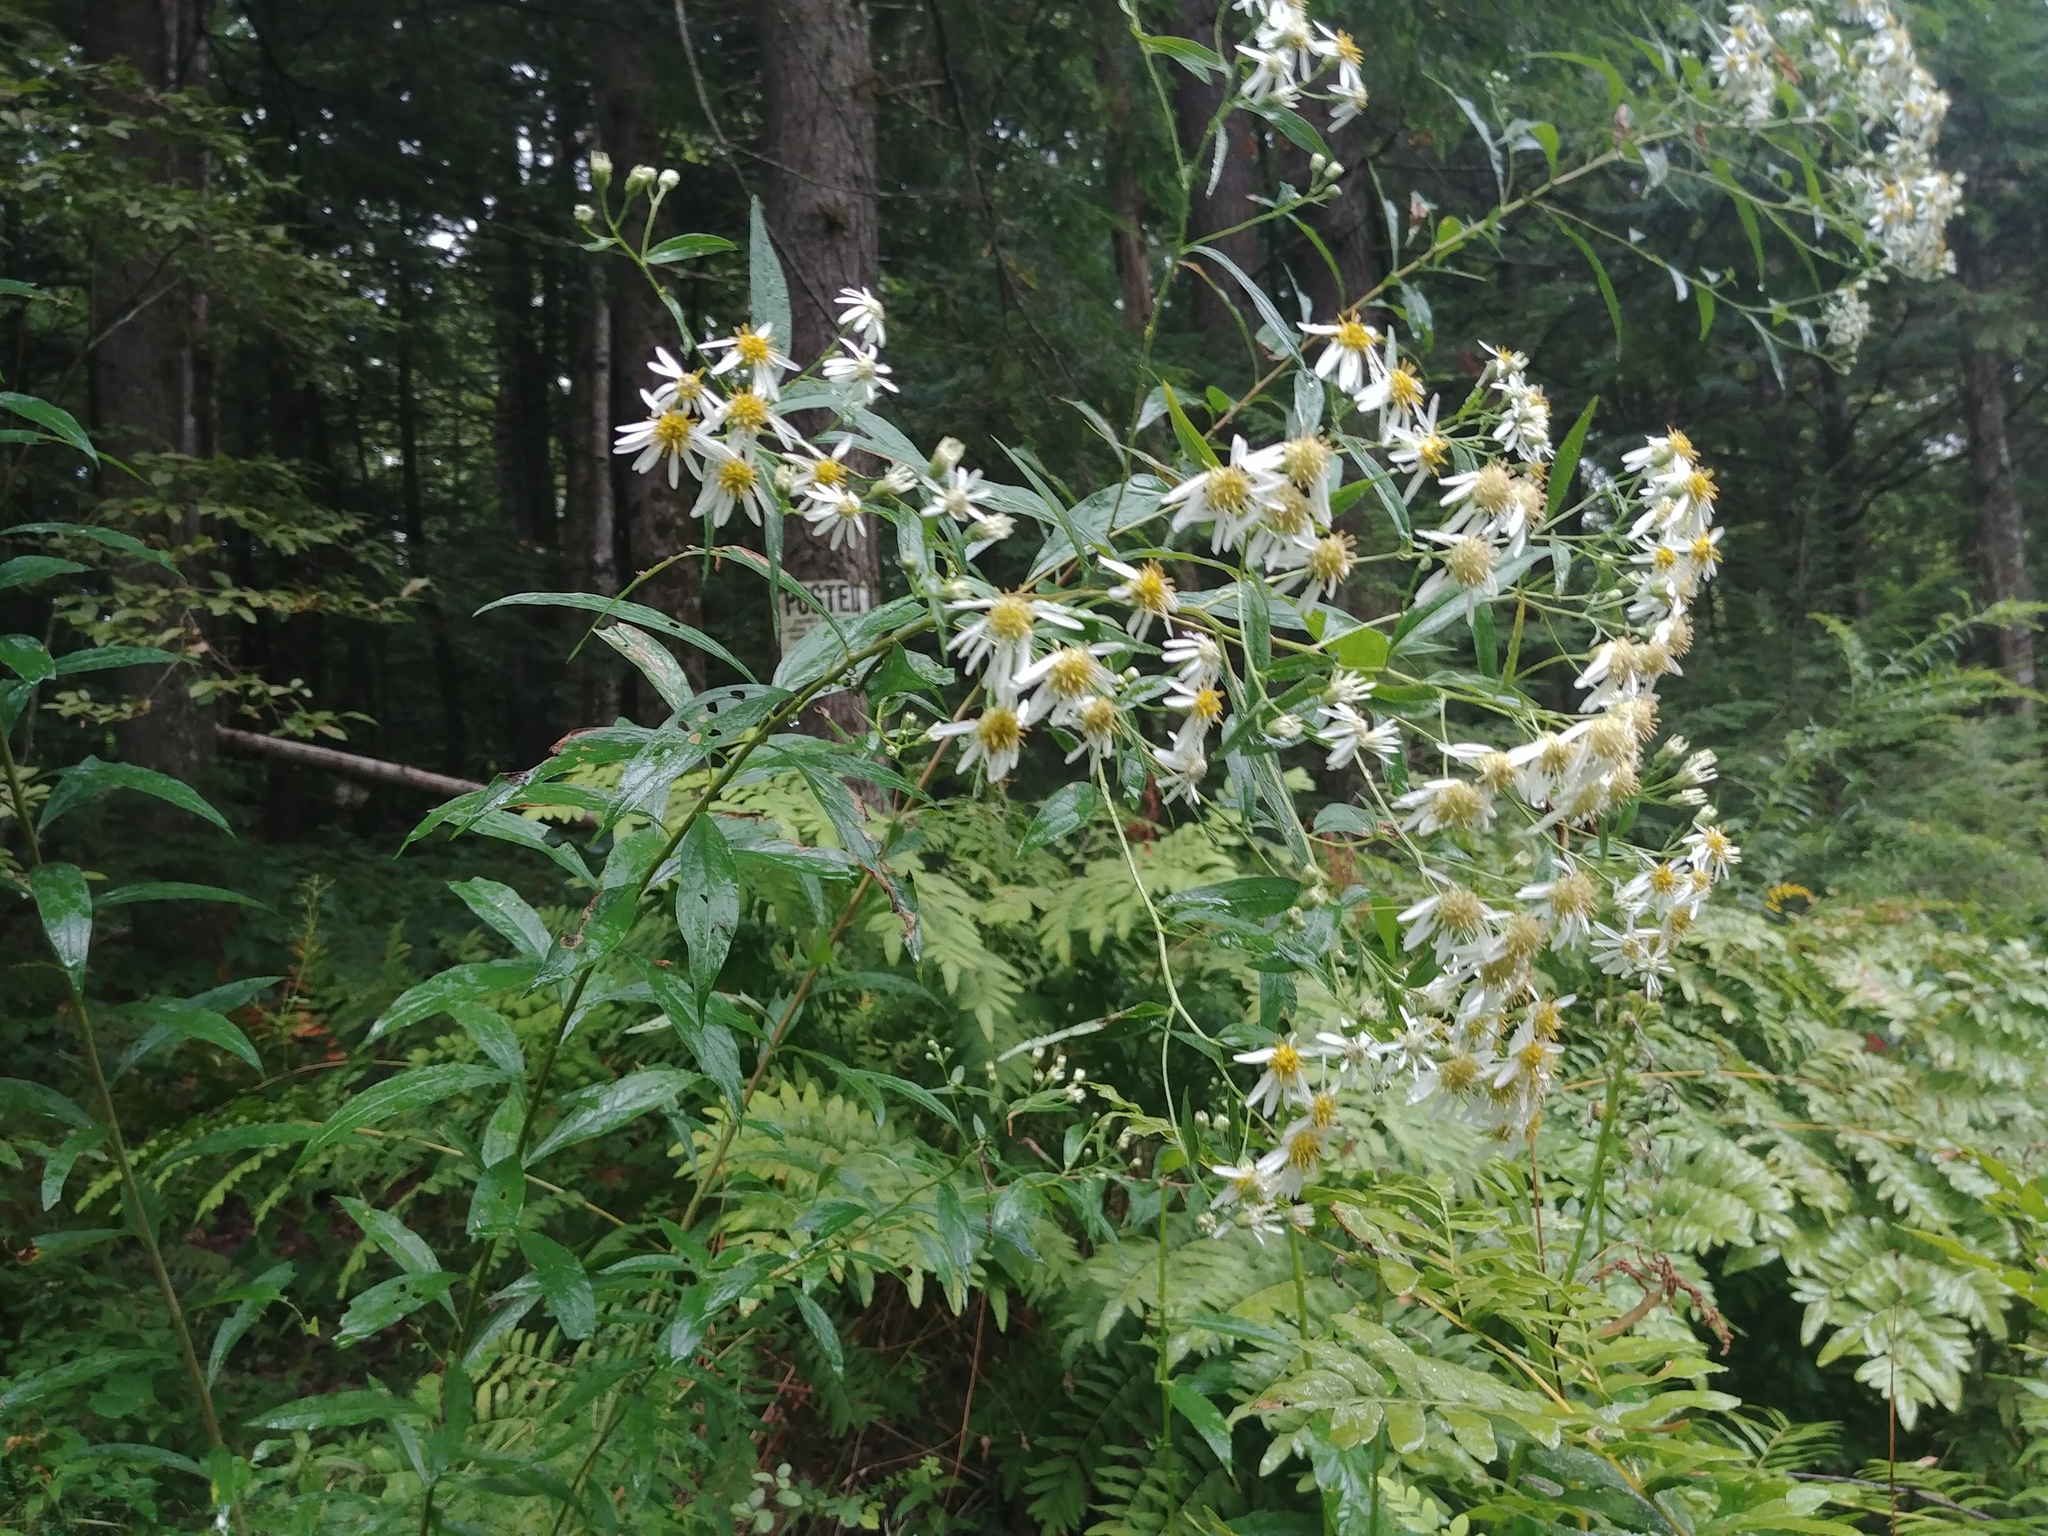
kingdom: Plantae
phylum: Tracheophyta
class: Magnoliopsida
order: Asterales
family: Asteraceae
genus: Doellingeria
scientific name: Doellingeria umbellata
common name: Flat-top white aster
